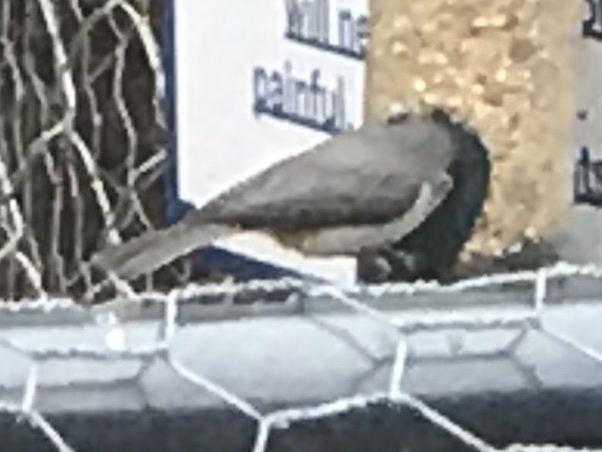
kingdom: Animalia
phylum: Chordata
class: Aves
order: Passeriformes
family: Paridae
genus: Baeolophus
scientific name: Baeolophus bicolor
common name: Tufted titmouse
